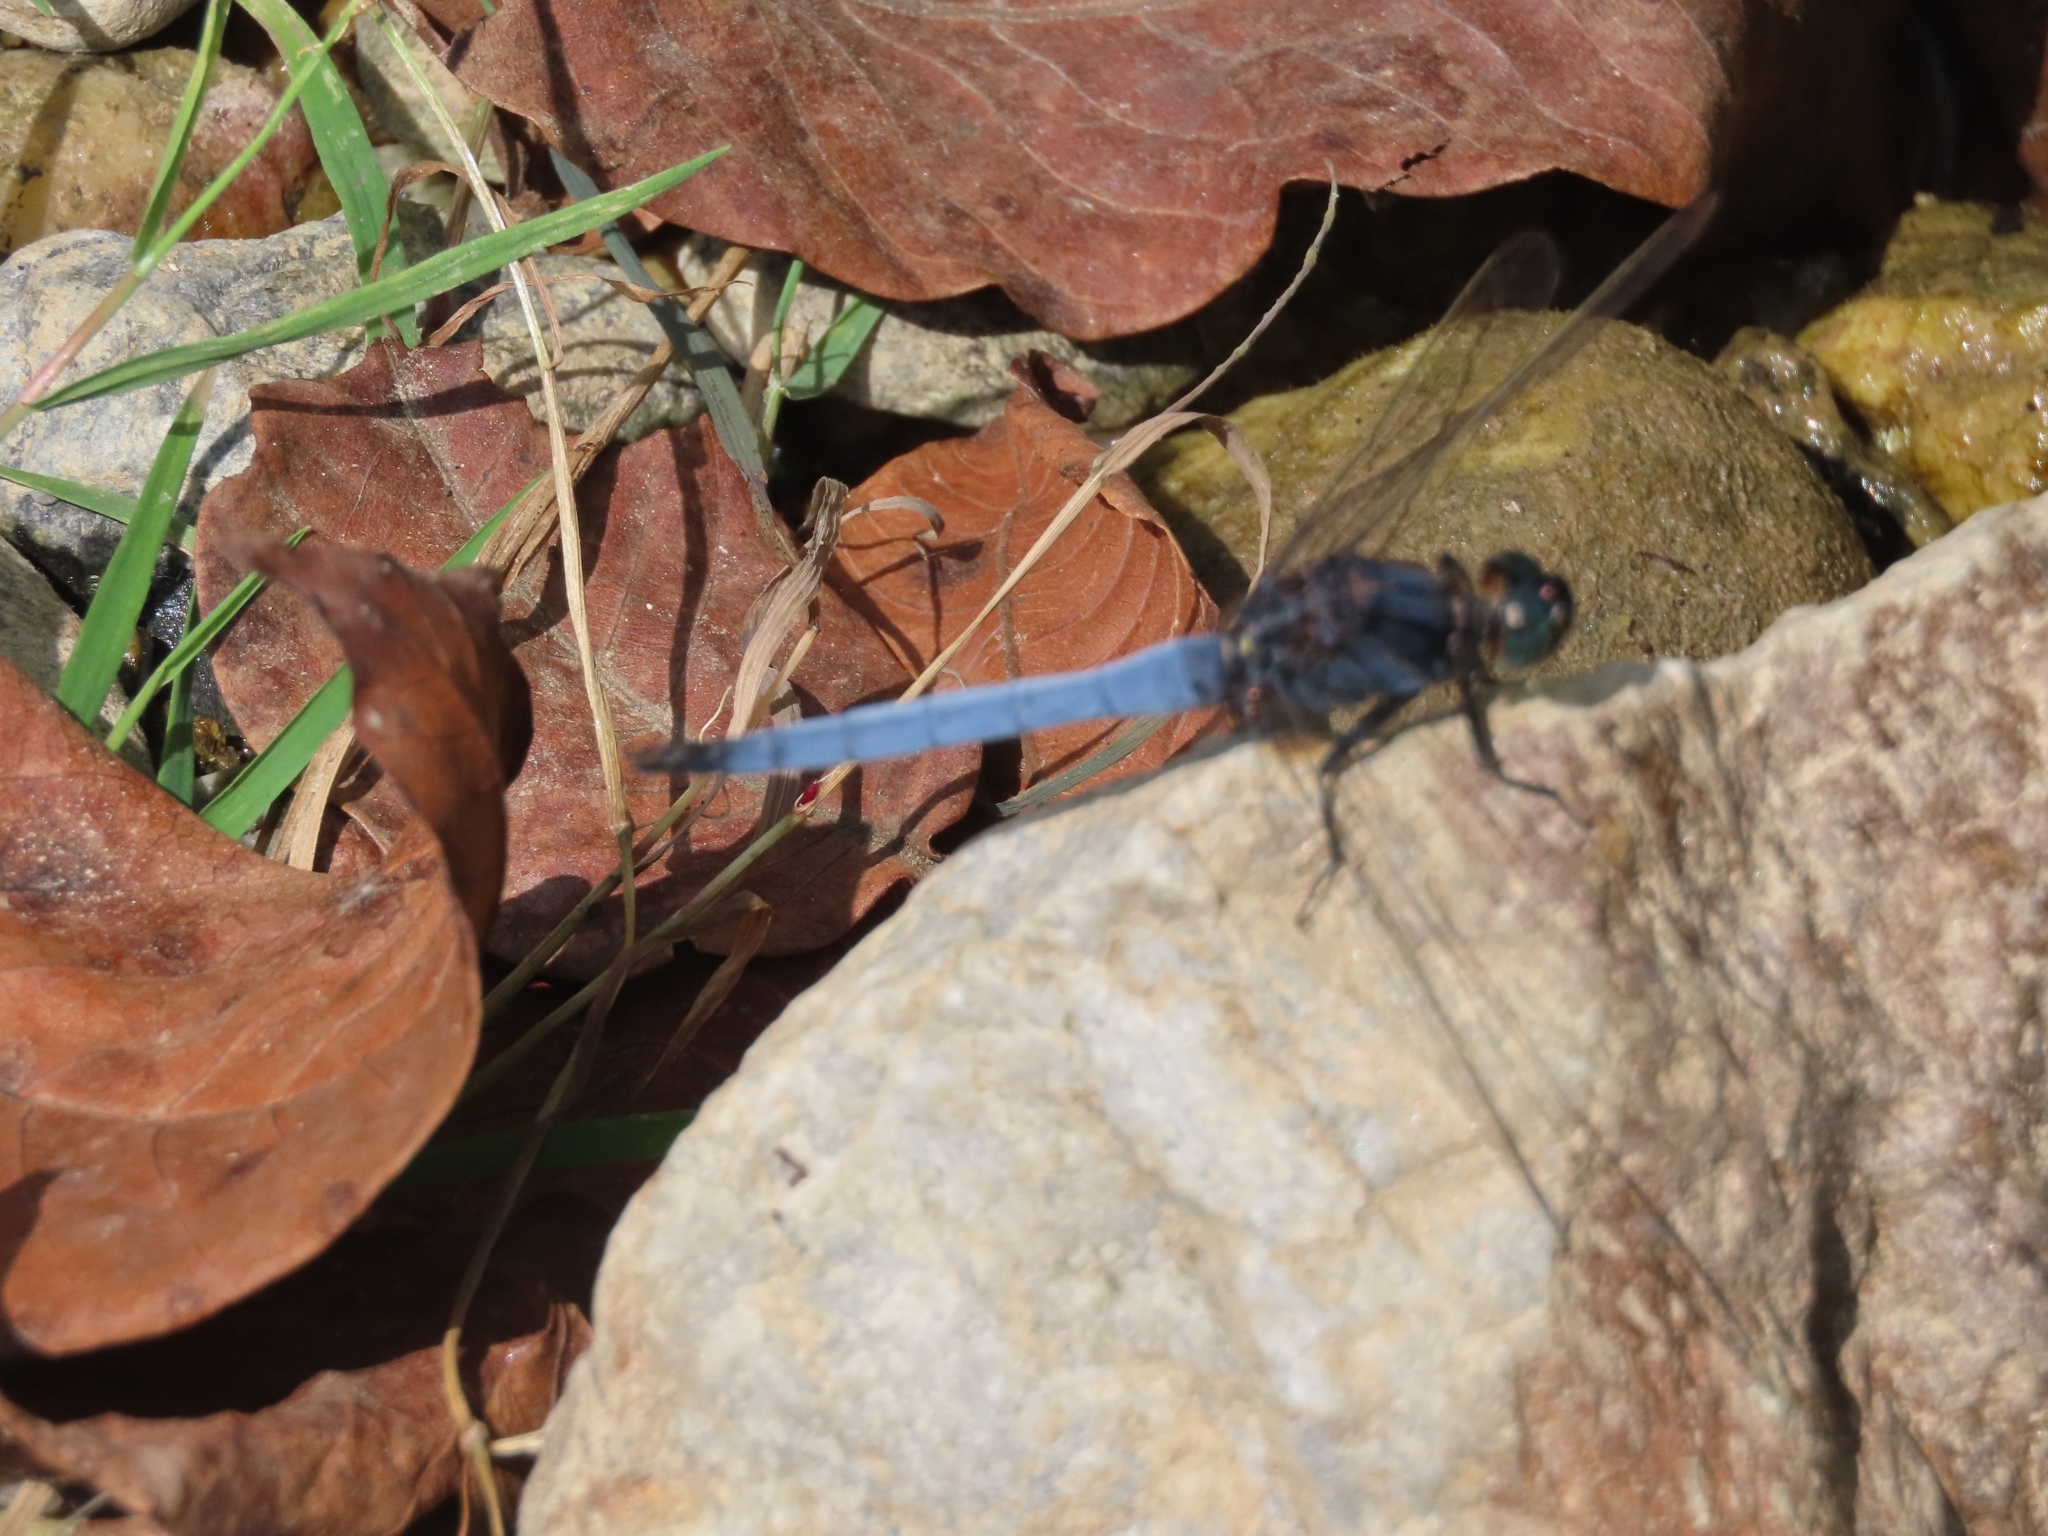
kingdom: Animalia
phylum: Arthropoda
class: Insecta
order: Odonata
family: Libellulidae
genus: Orthetrum
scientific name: Orthetrum triangulare
